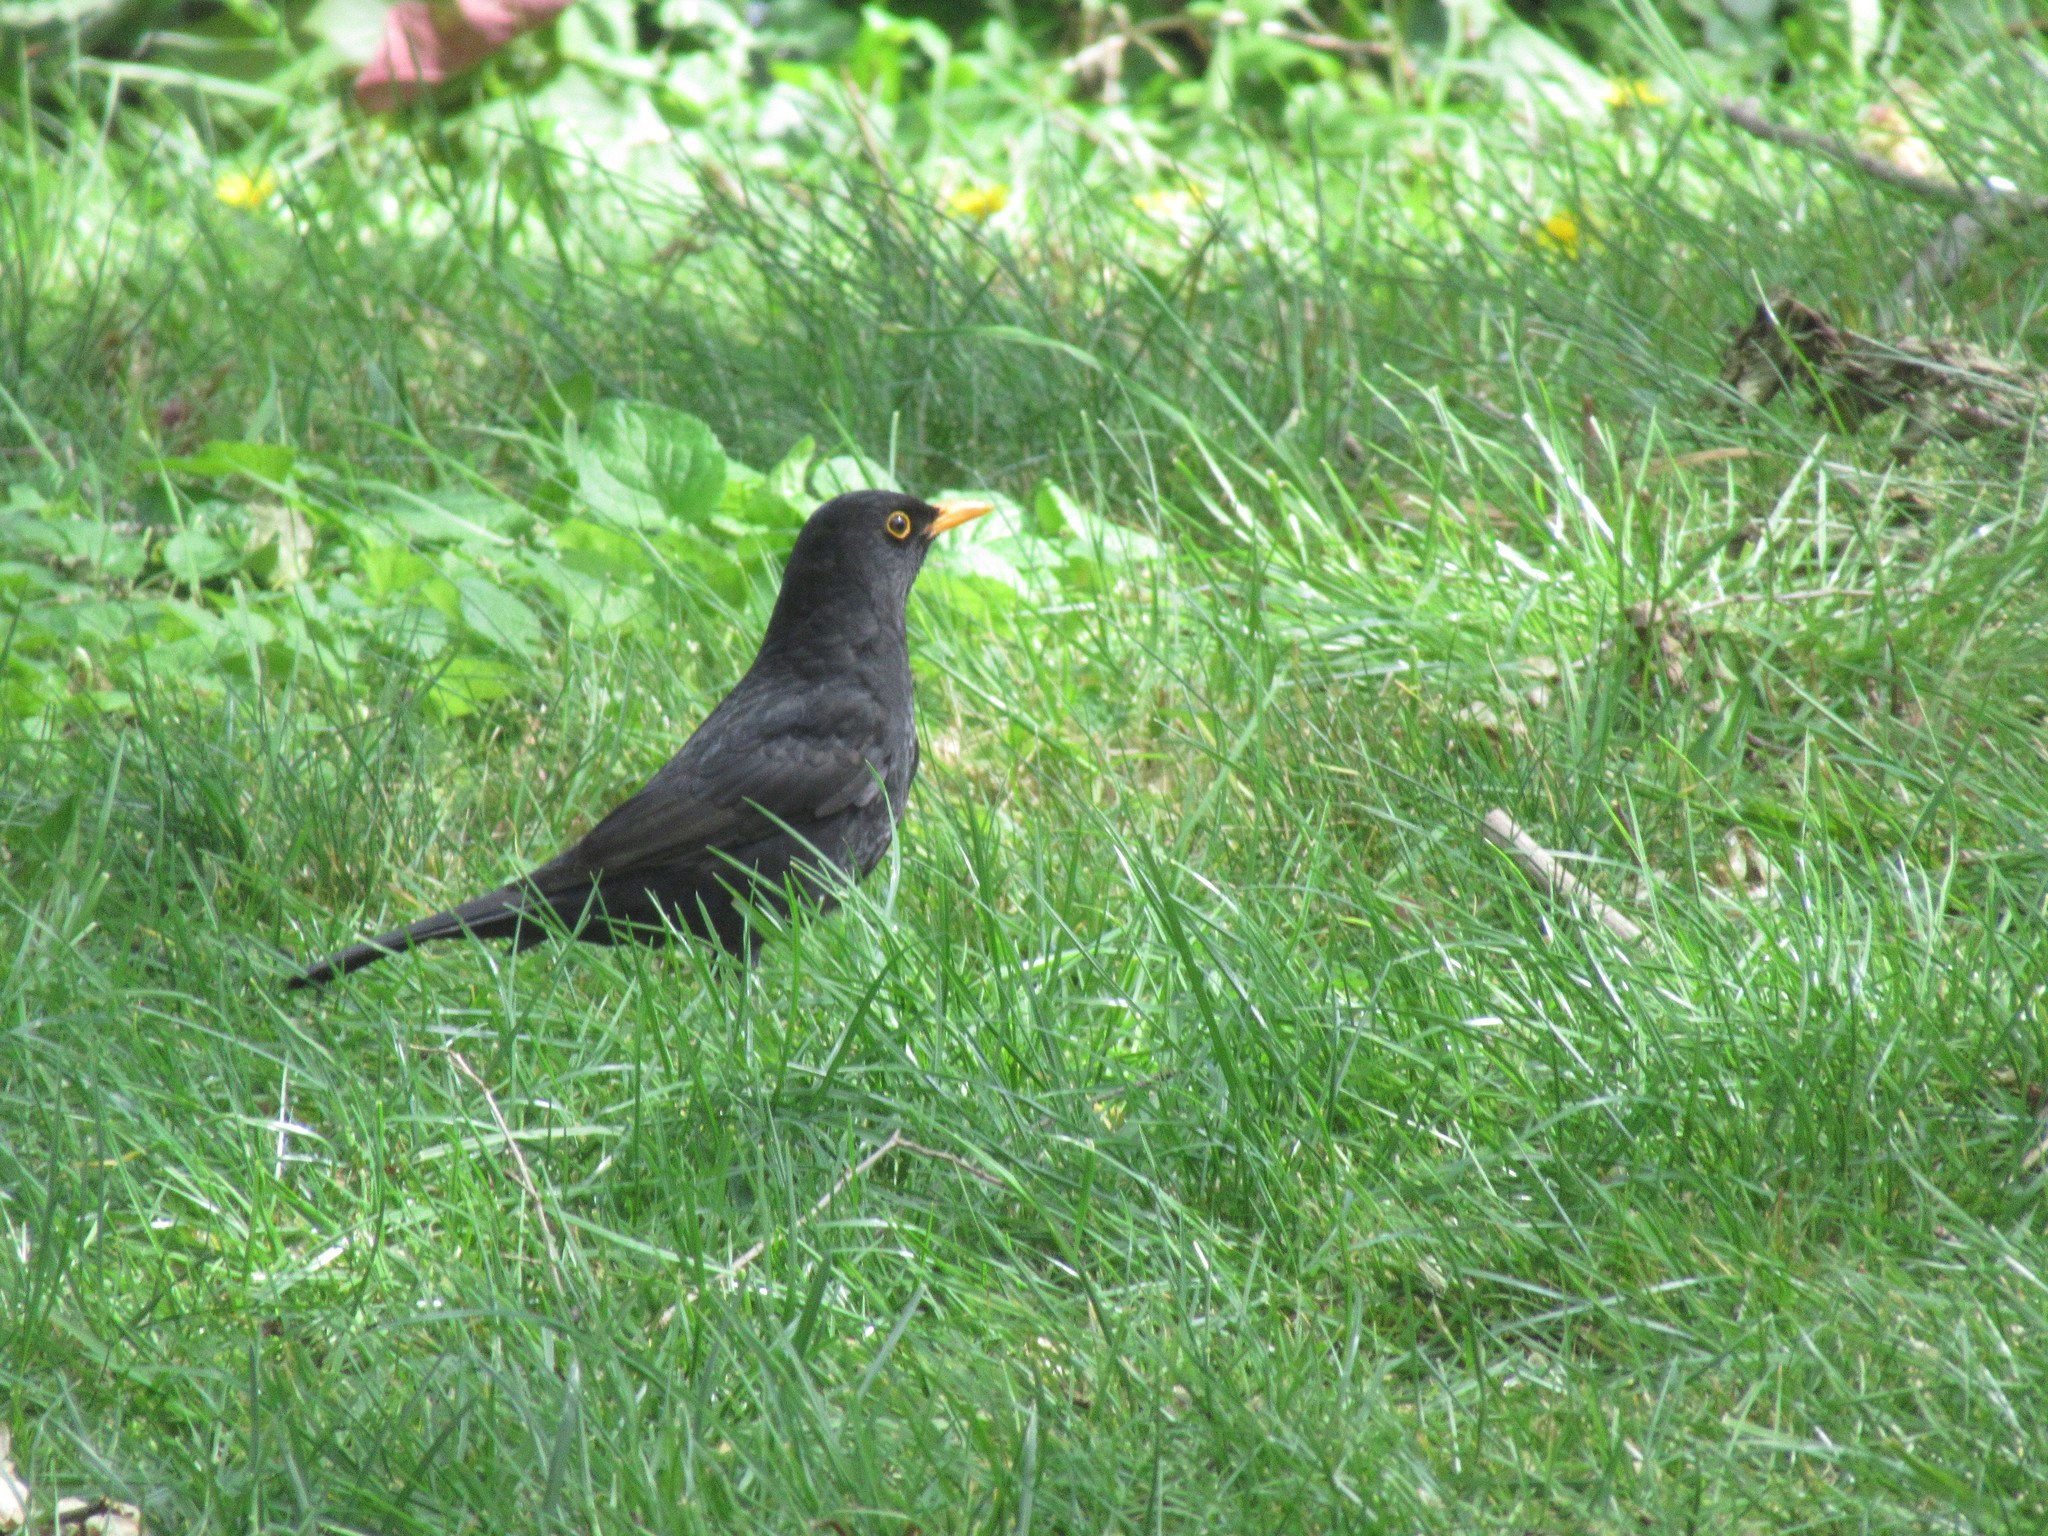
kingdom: Animalia
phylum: Chordata
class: Aves
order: Passeriformes
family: Turdidae
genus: Turdus
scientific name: Turdus merula
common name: Common blackbird
